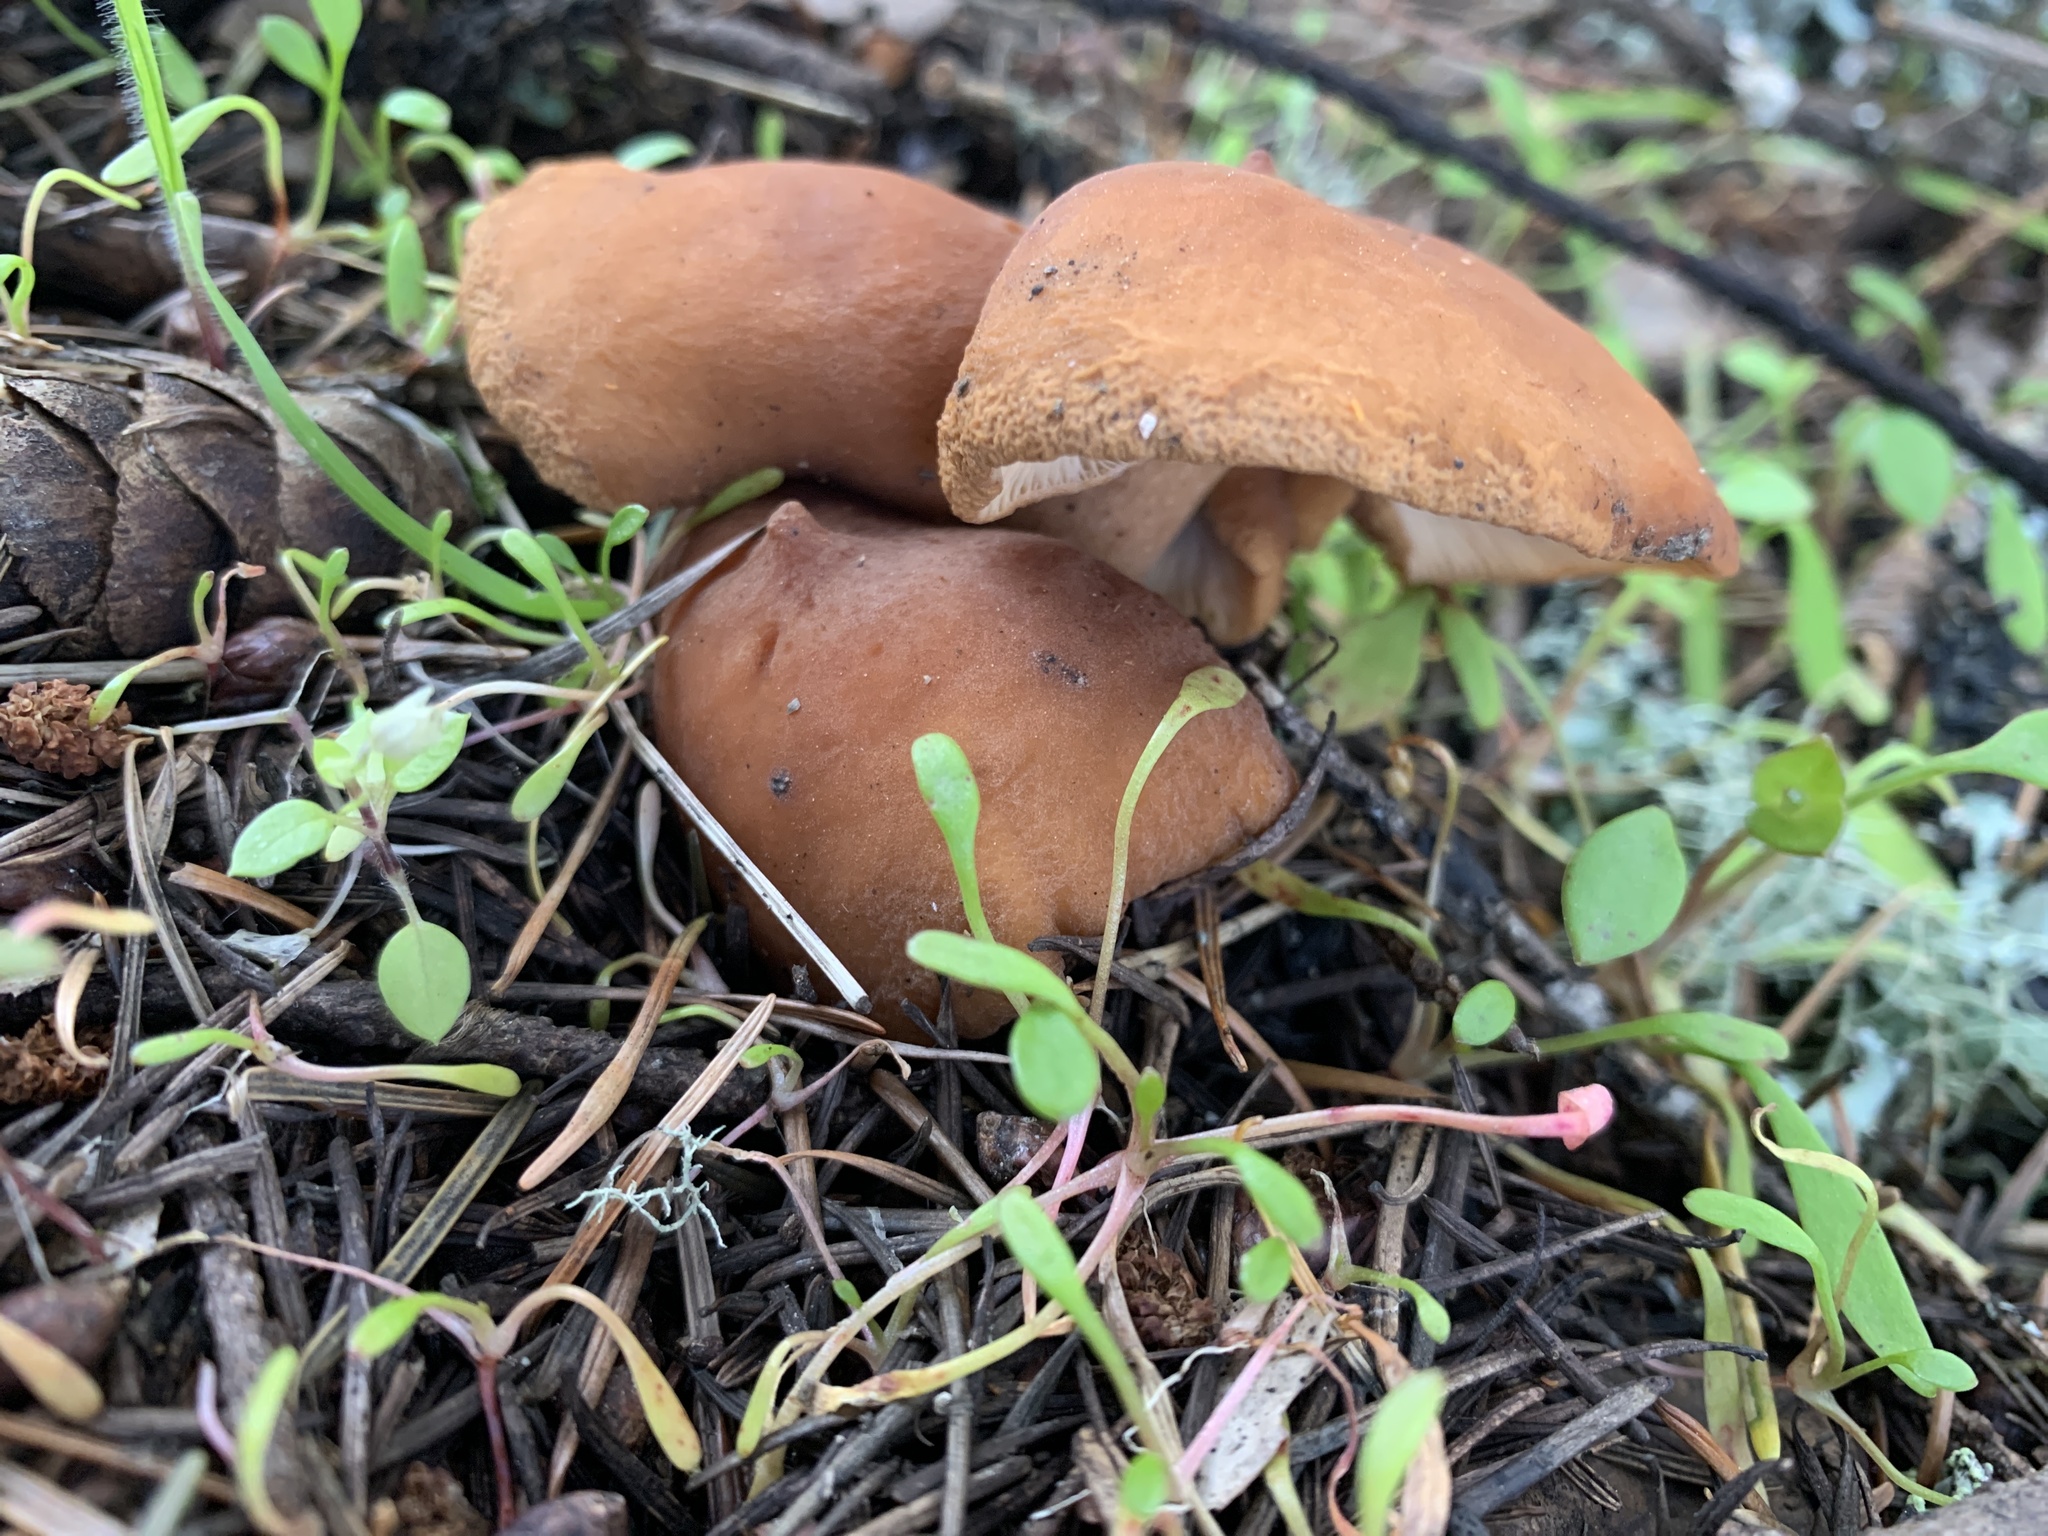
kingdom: Fungi
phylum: Basidiomycota
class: Agaricomycetes
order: Russulales
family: Russulaceae
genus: Lactarius
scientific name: Lactarius rubidus
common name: Candy cap
